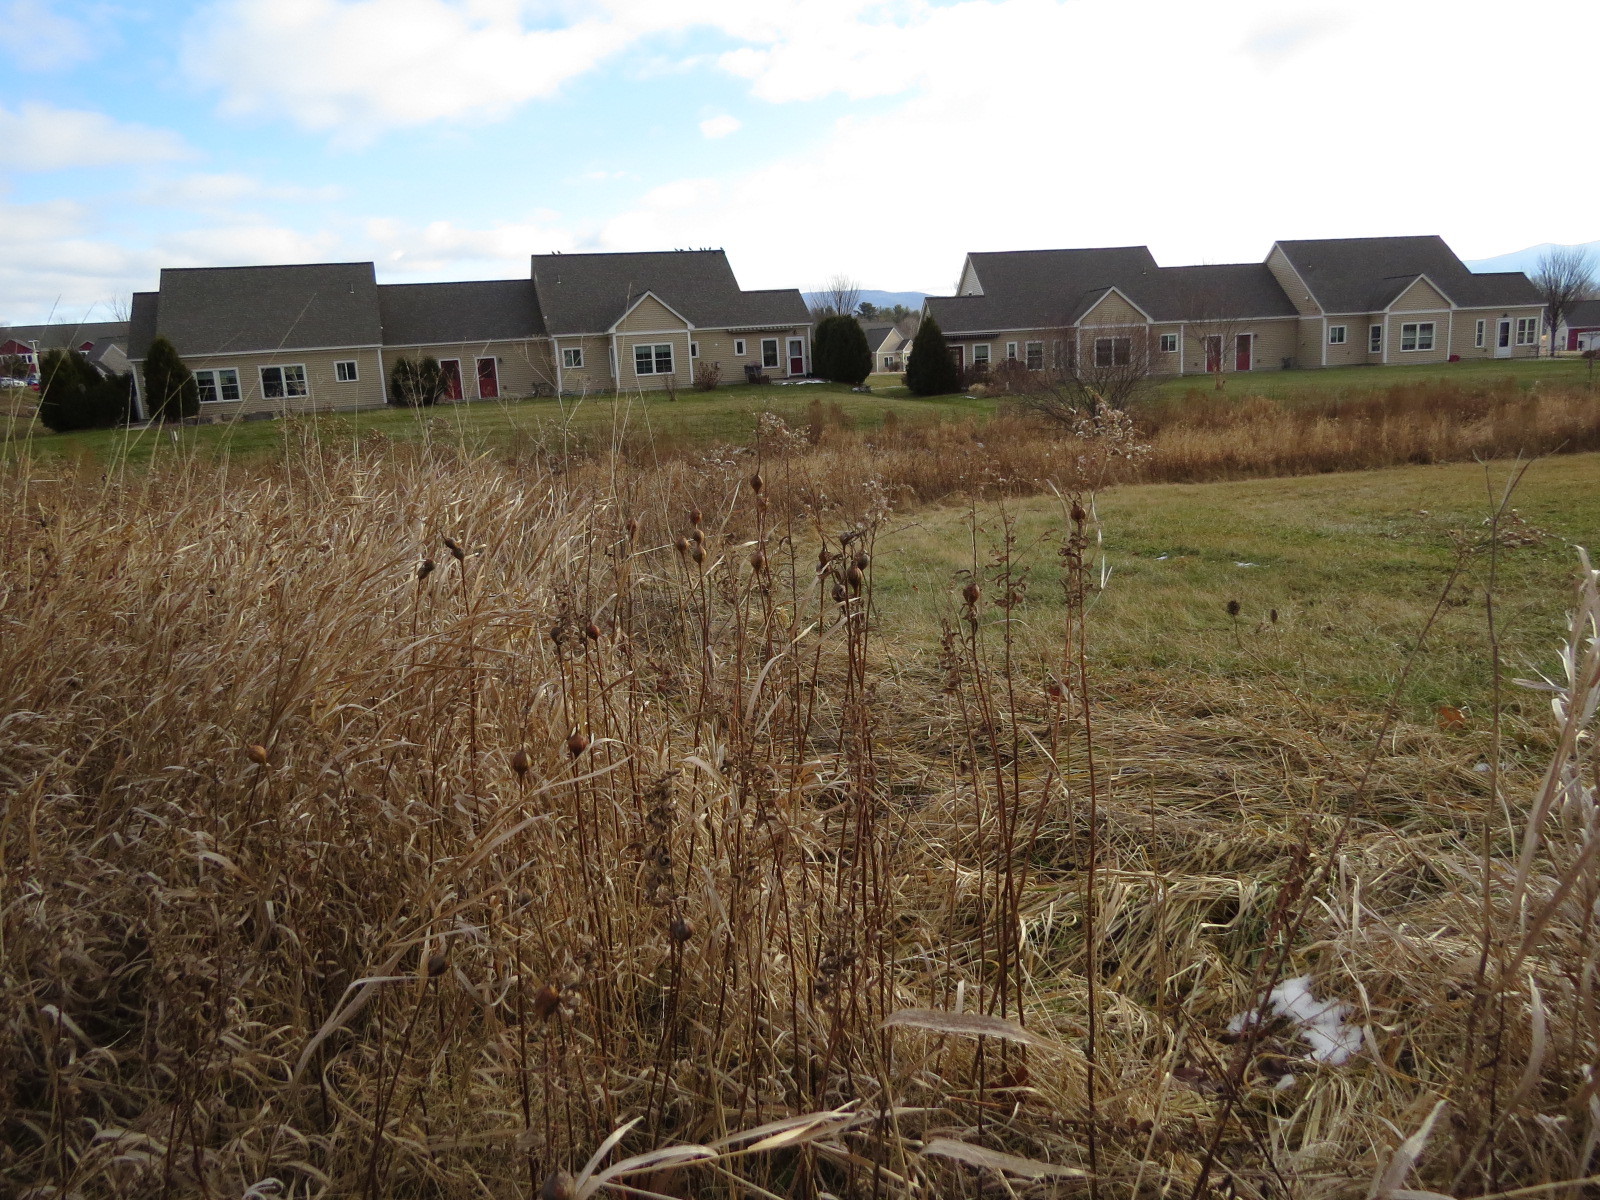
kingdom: Animalia
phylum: Arthropoda
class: Insecta
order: Diptera
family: Tephritidae
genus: Eurosta
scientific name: Eurosta solidaginis
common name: Goldenrod gall fly
